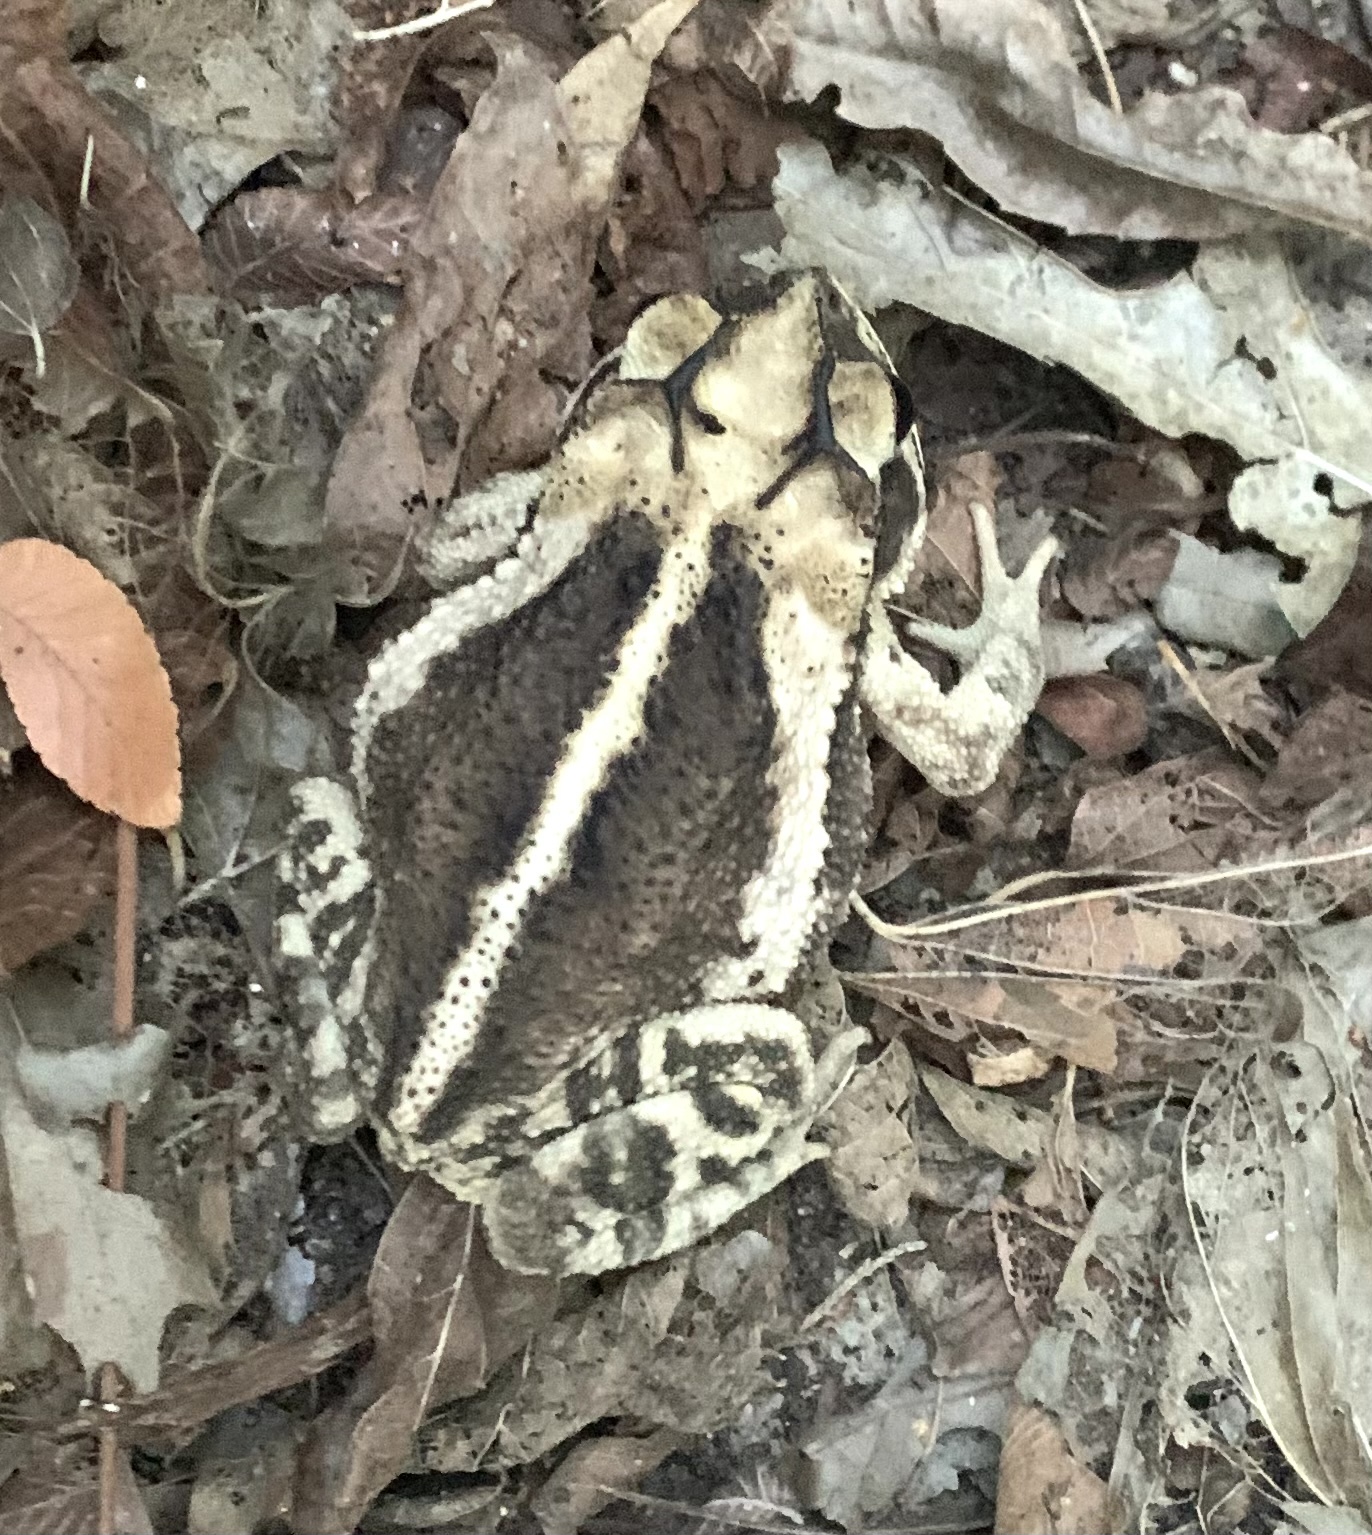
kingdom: Animalia
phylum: Chordata
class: Amphibia
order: Anura
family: Bufonidae
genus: Incilius
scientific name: Incilius nebulifer
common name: Gulf coast toad
